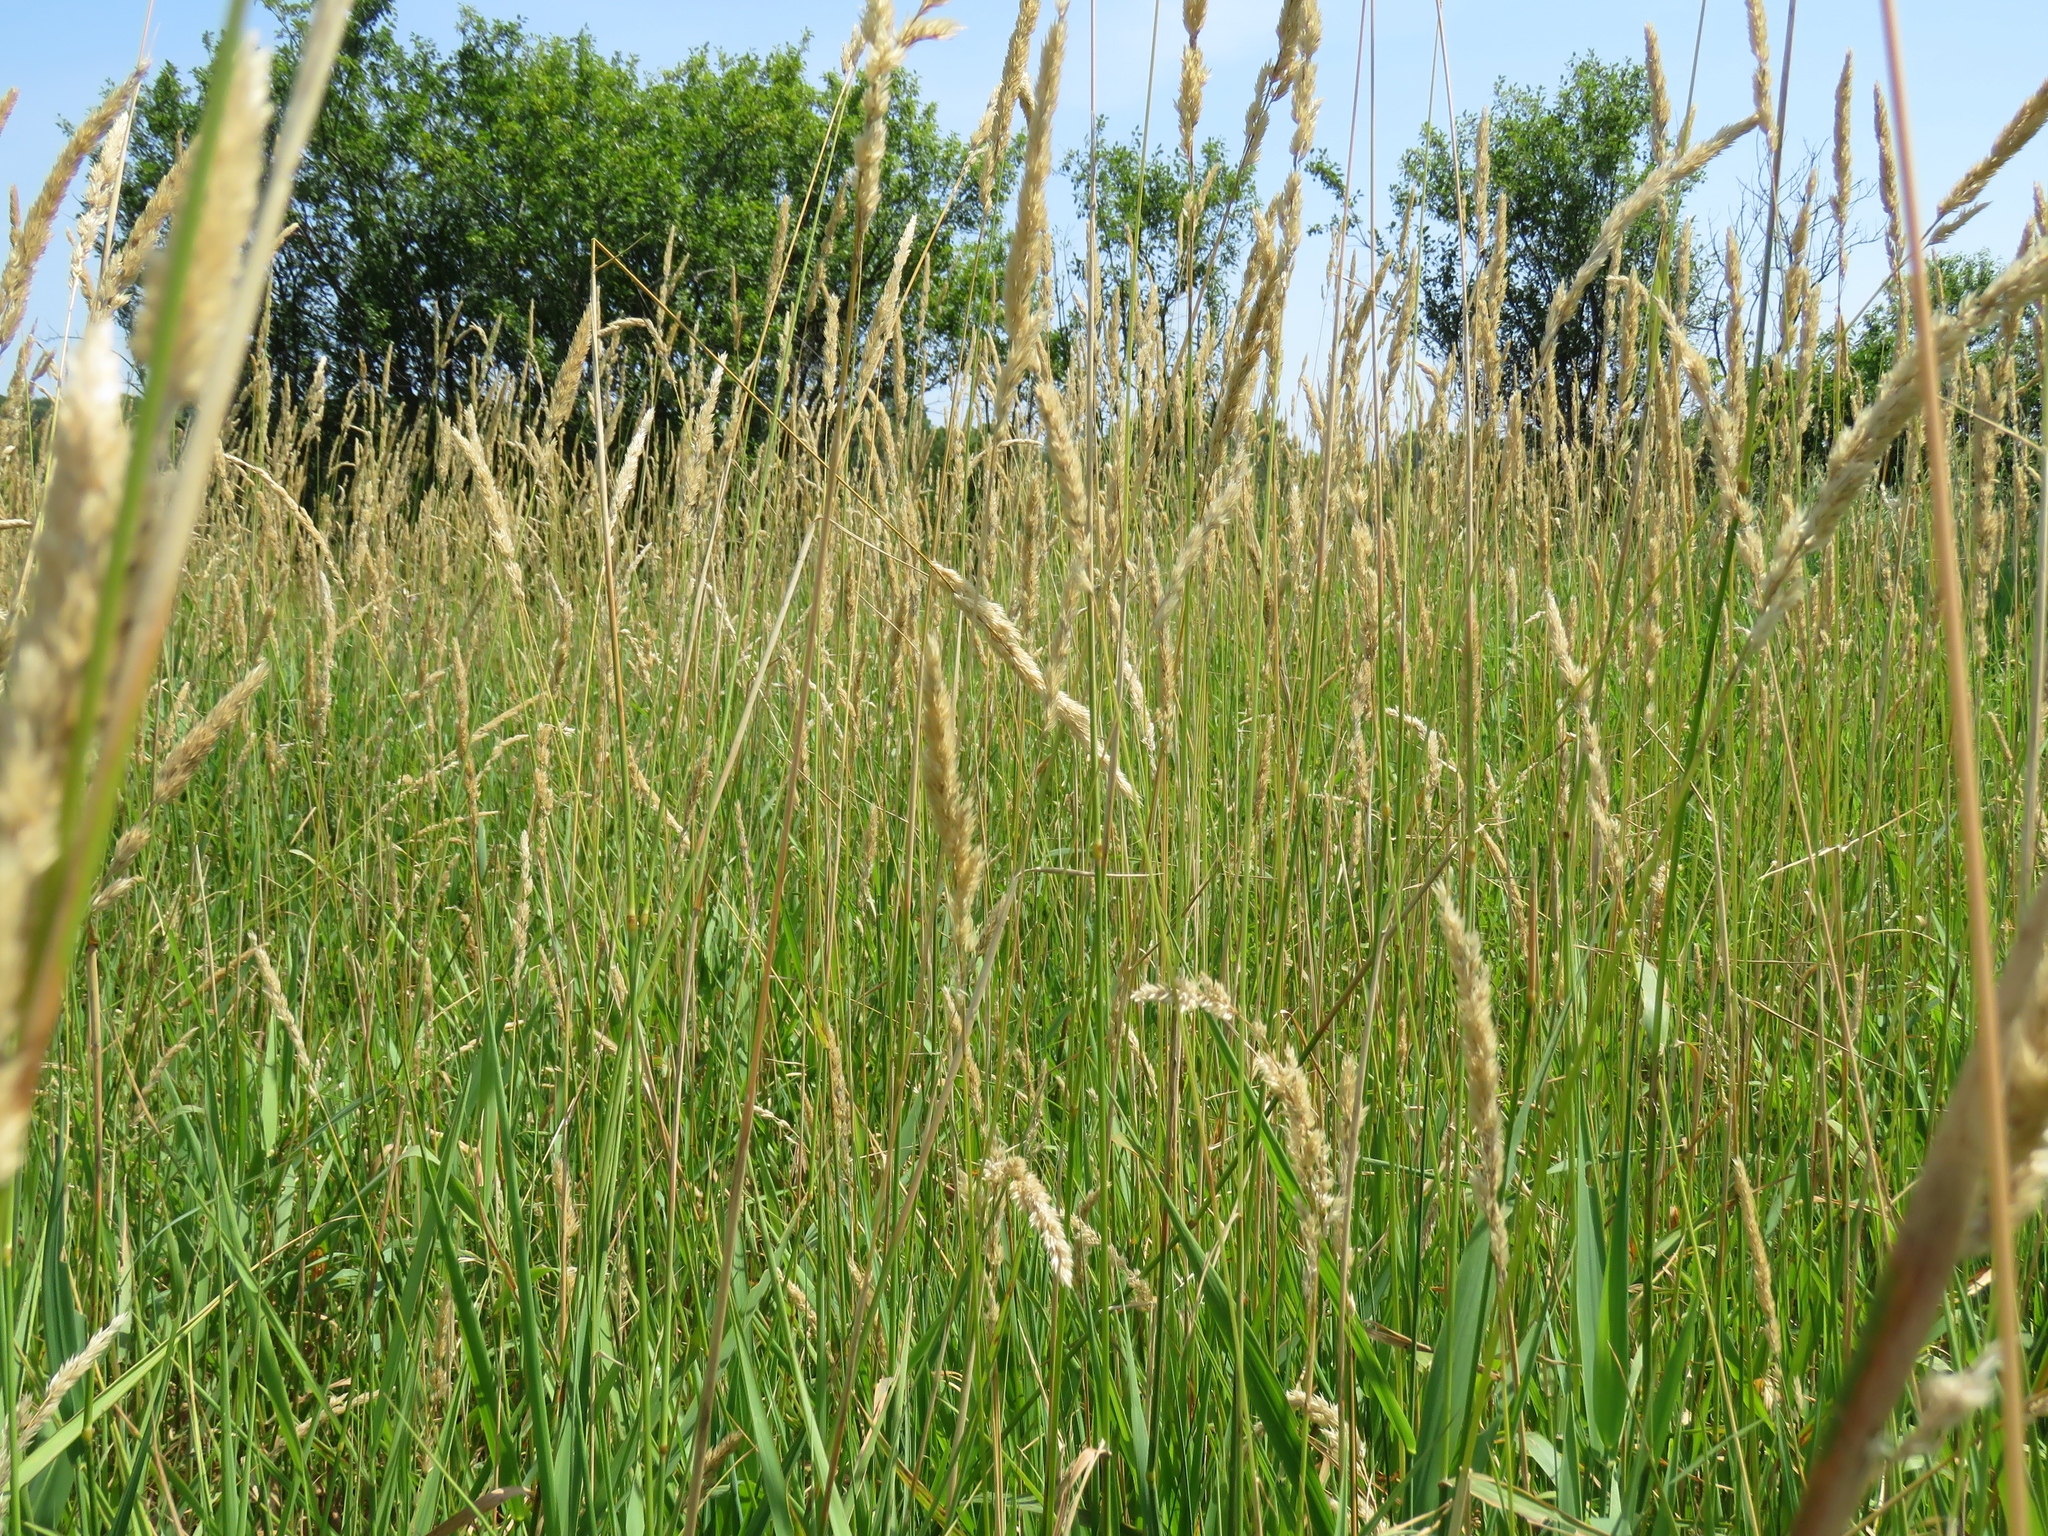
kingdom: Plantae
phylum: Tracheophyta
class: Liliopsida
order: Poales
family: Poaceae
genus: Phalaris
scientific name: Phalaris arundinacea
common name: Reed canary-grass
